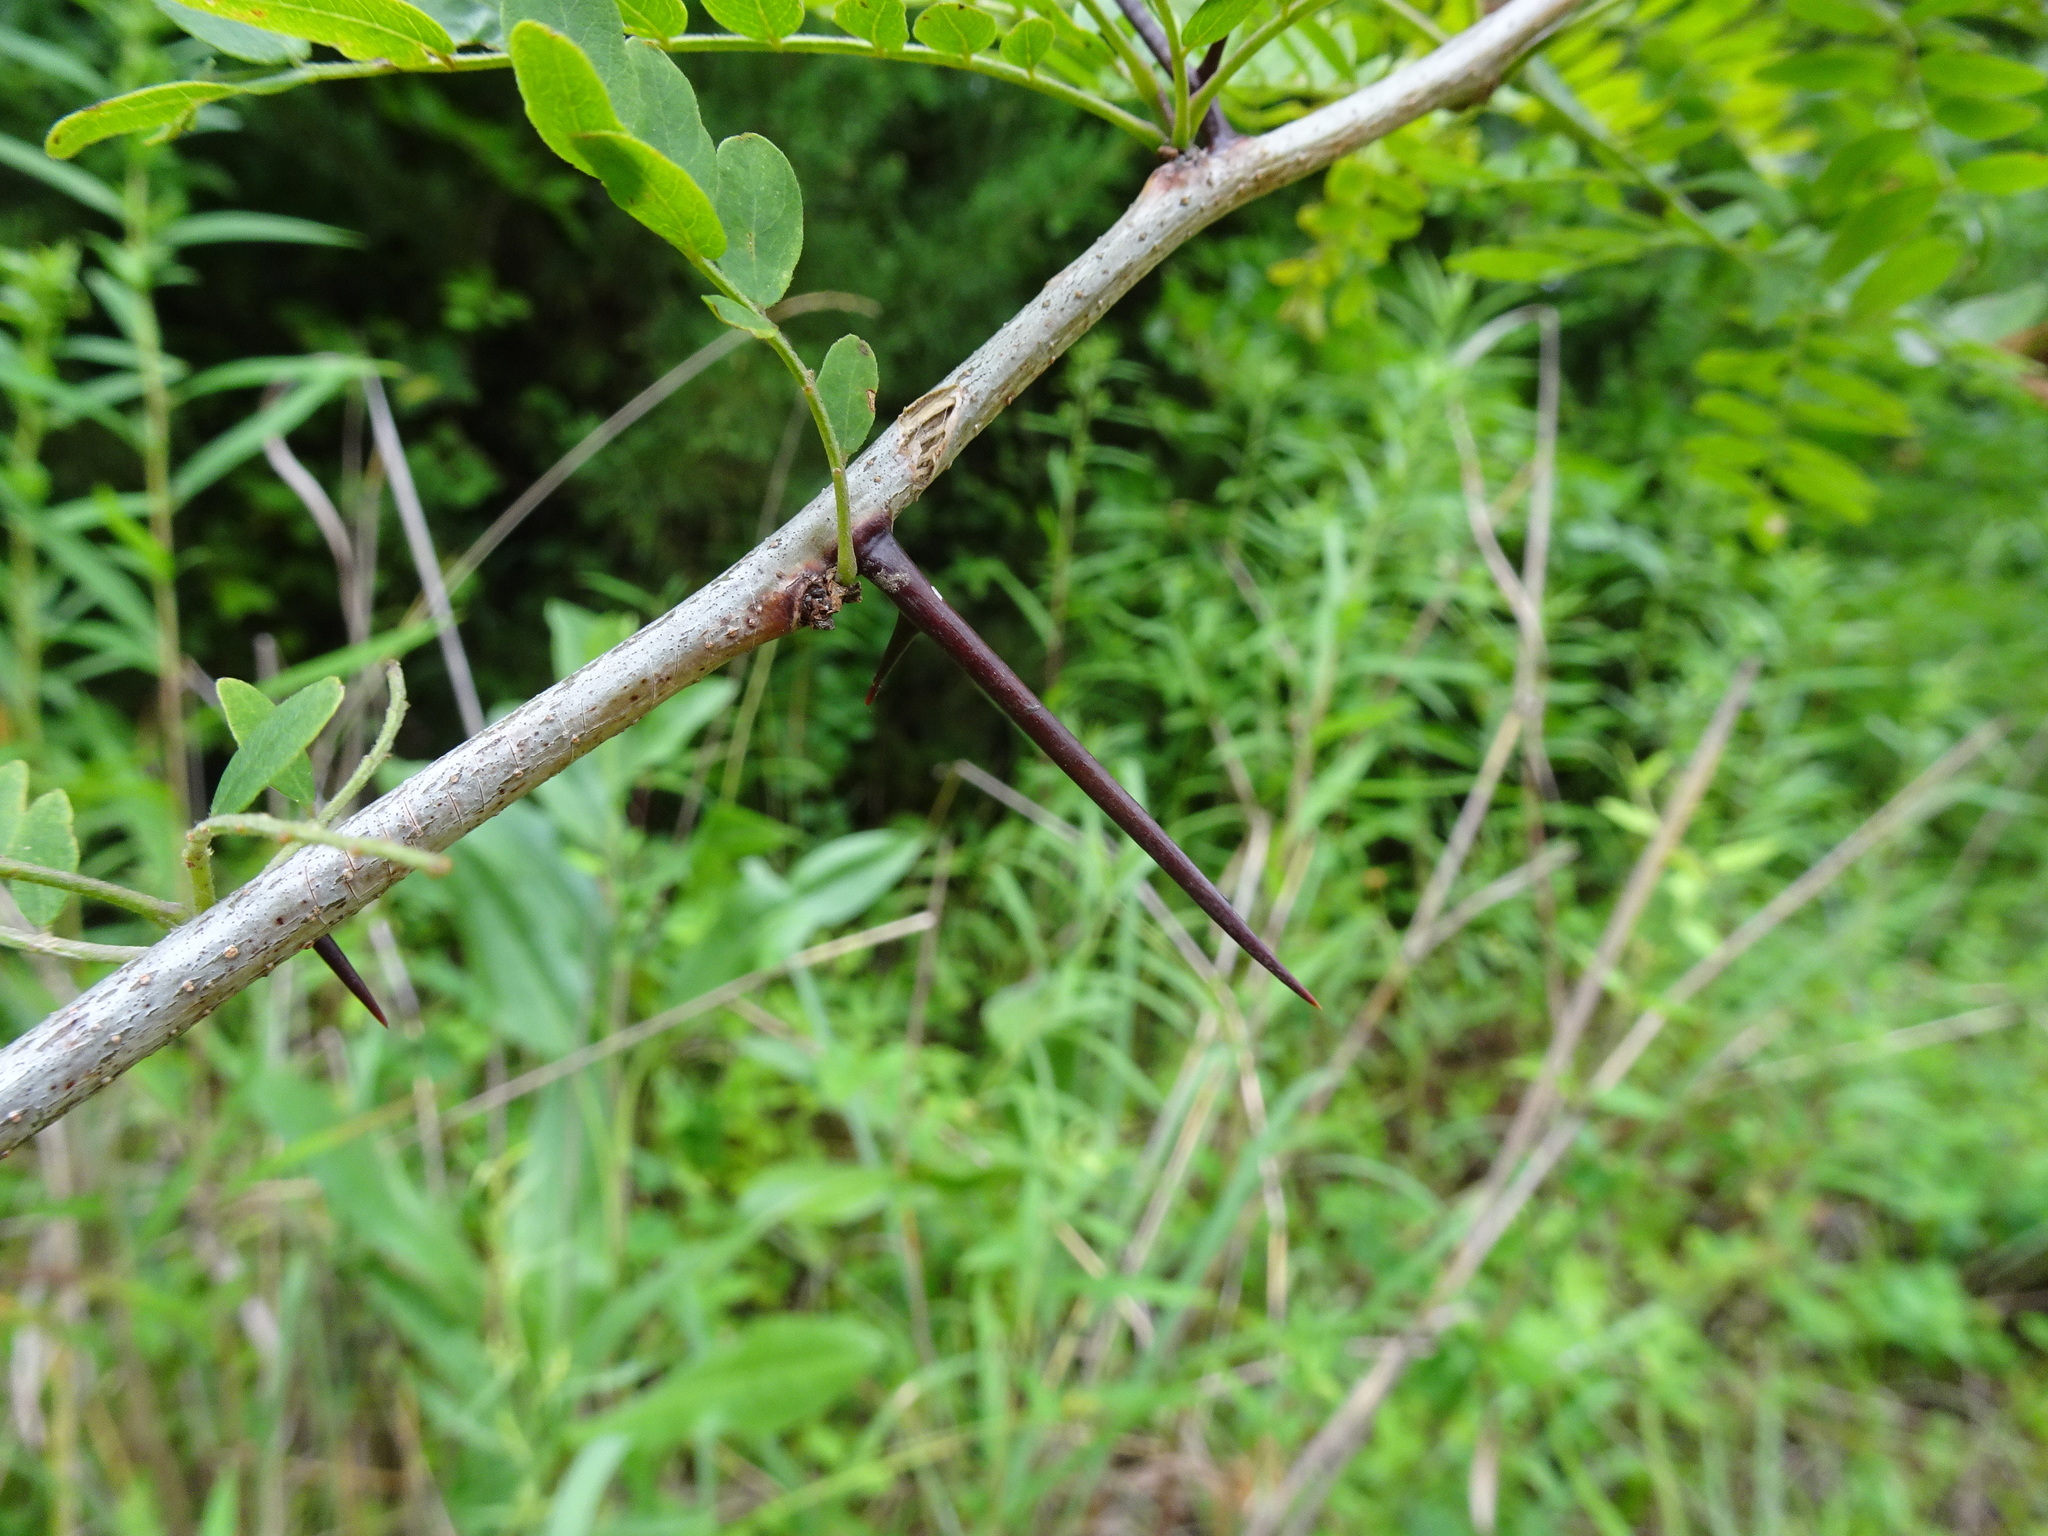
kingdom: Plantae
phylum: Tracheophyta
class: Magnoliopsida
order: Fabales
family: Fabaceae
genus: Gleditsia
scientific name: Gleditsia triacanthos
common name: Common honeylocust
